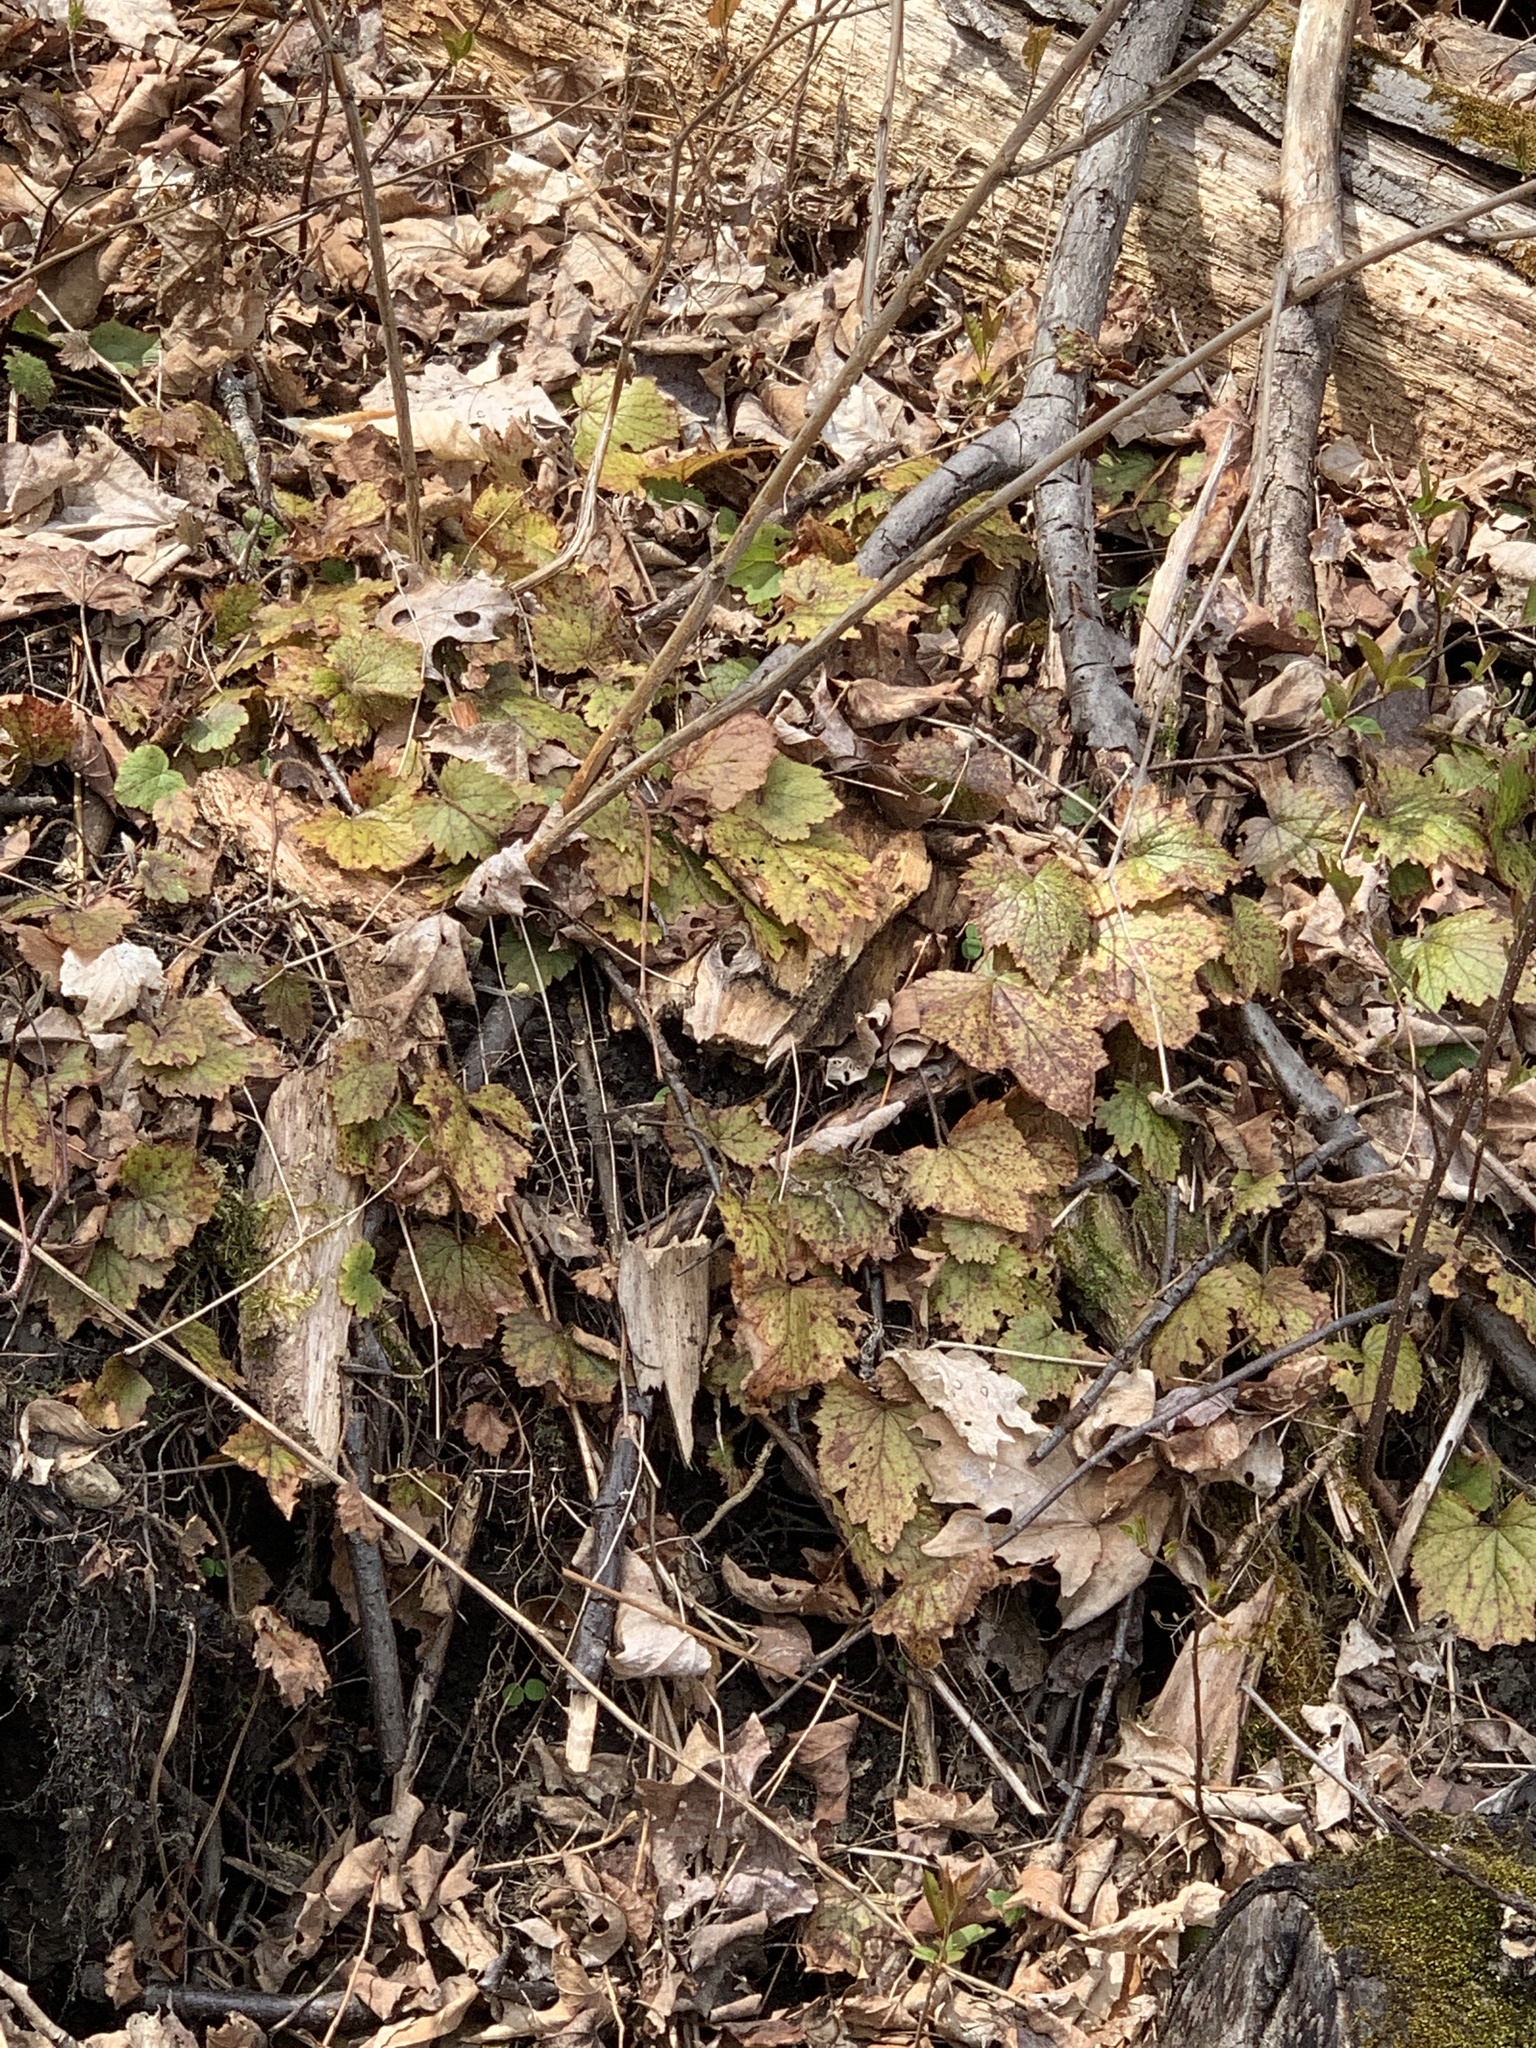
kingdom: Plantae
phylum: Tracheophyta
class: Magnoliopsida
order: Saxifragales
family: Saxifragaceae
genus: Tiarella
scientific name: Tiarella stolonifera
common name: Stoloniferous foamflower
